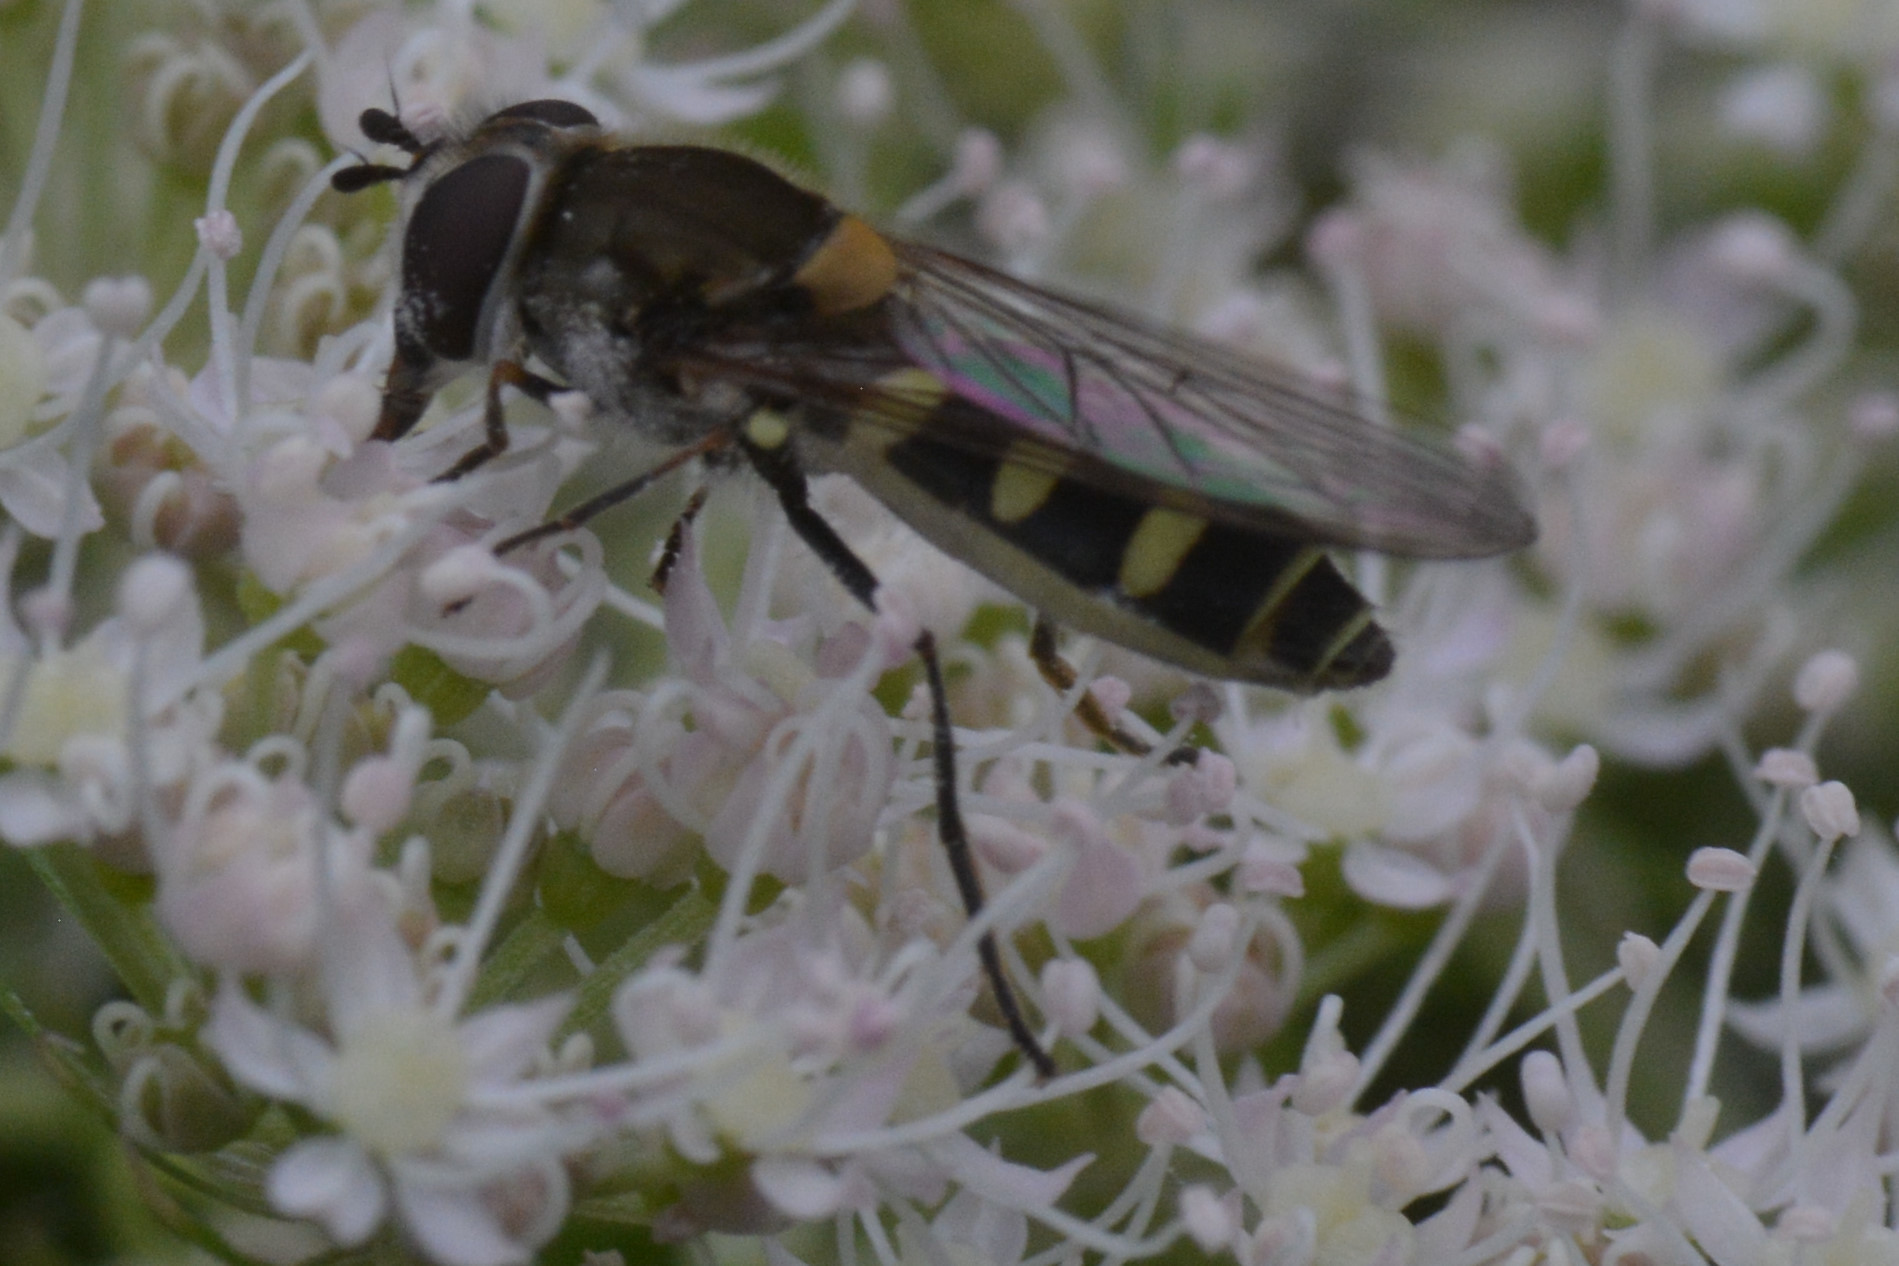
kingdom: Animalia
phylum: Arthropoda
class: Insecta
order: Diptera
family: Syrphidae
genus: Melangyna
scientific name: Melangyna labiatarum
